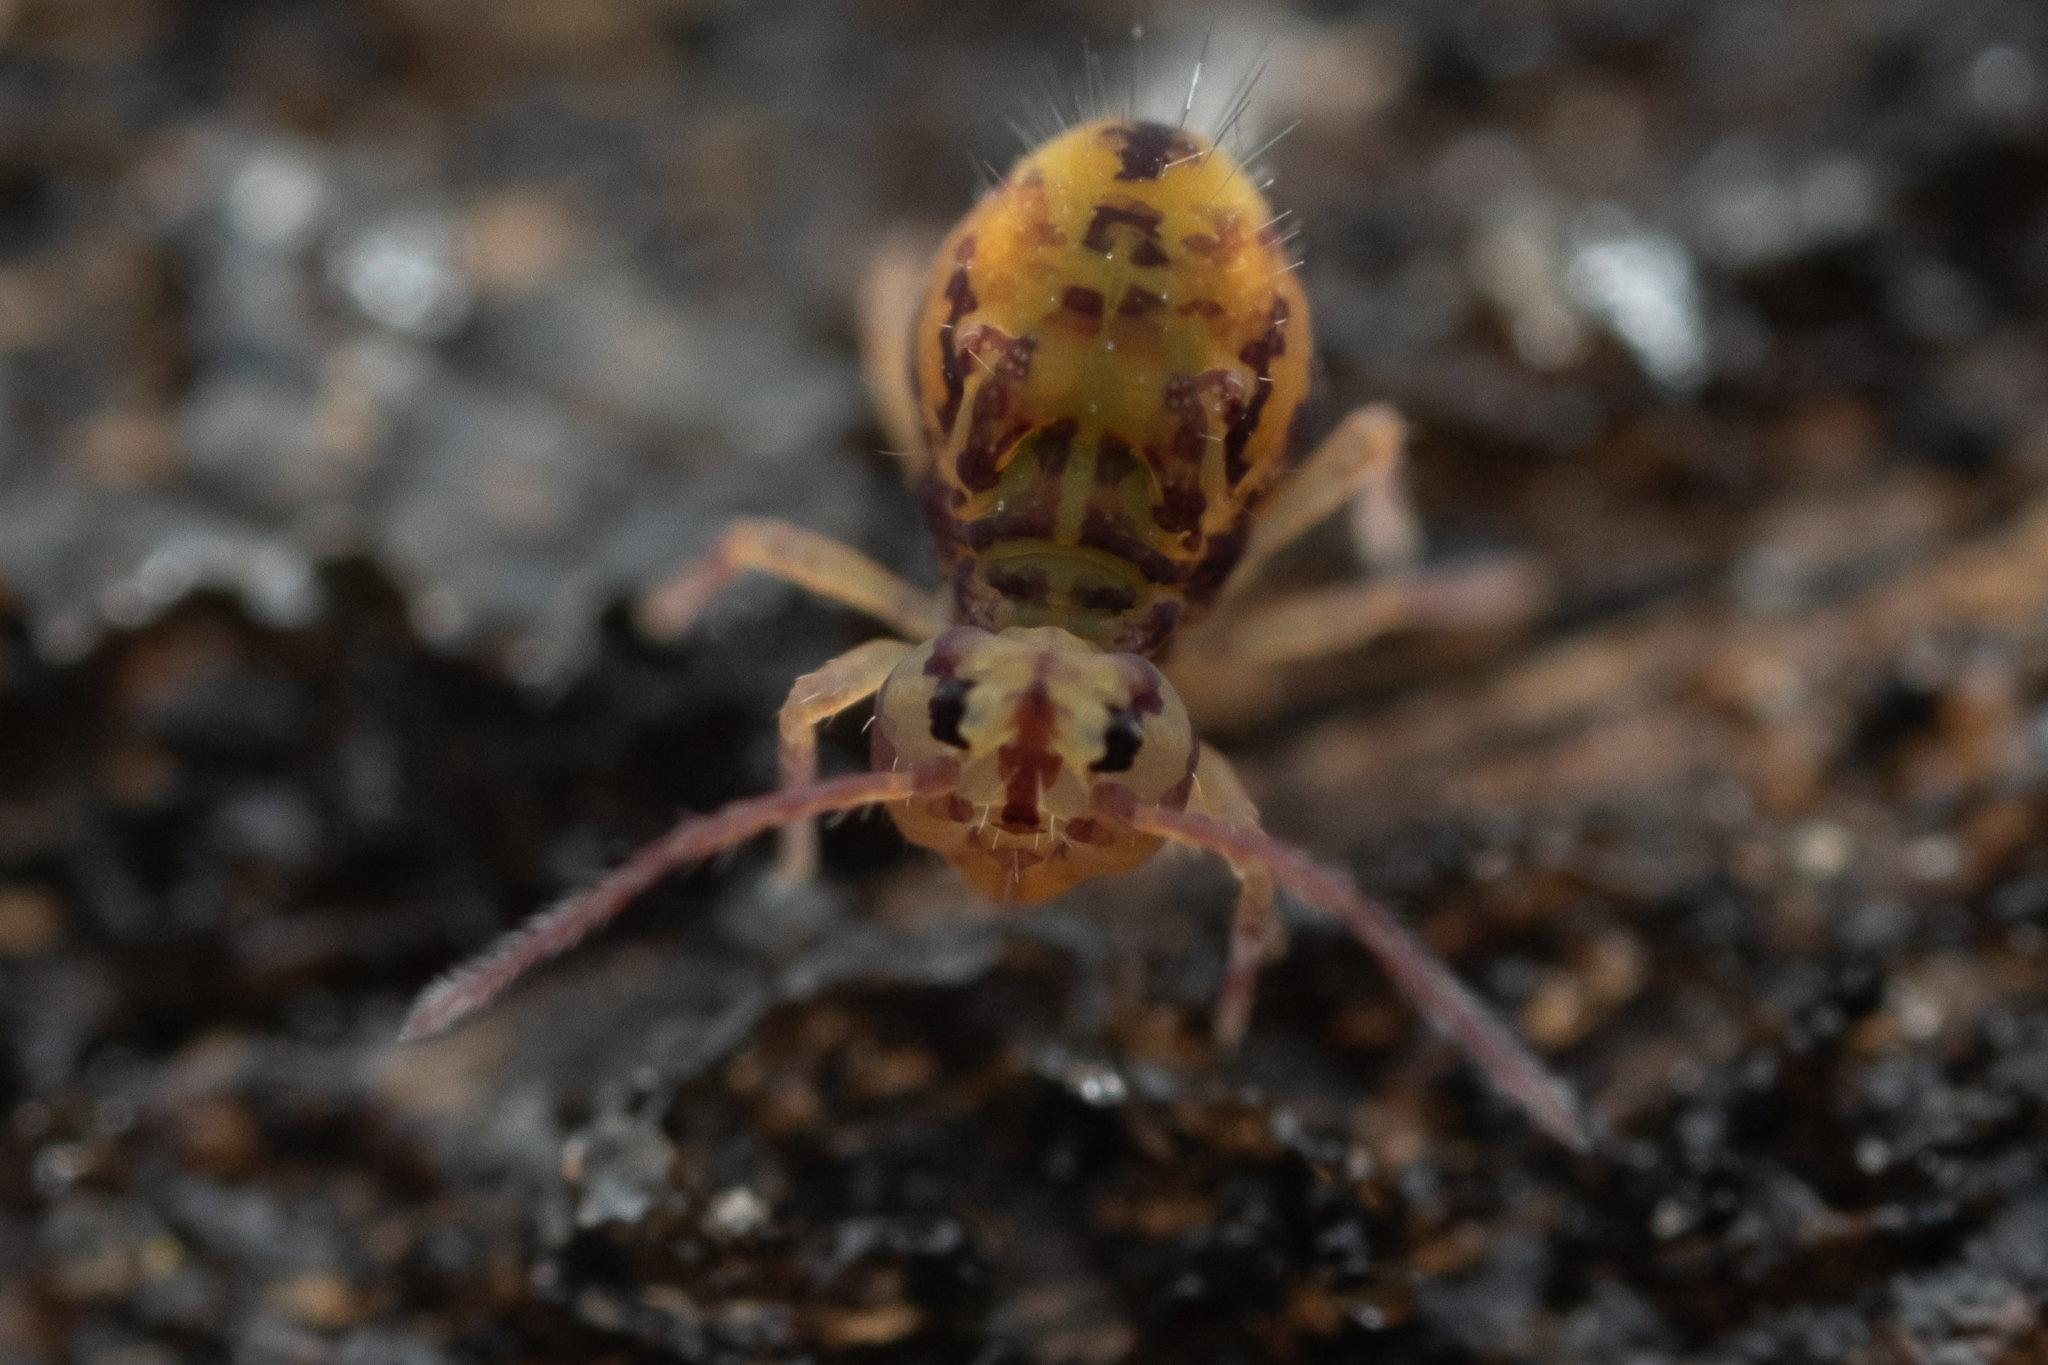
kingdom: Animalia
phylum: Arthropoda
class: Collembola
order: Symphypleona
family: Dicyrtomidae
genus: Dicyrtomina
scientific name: Dicyrtomina ornata
